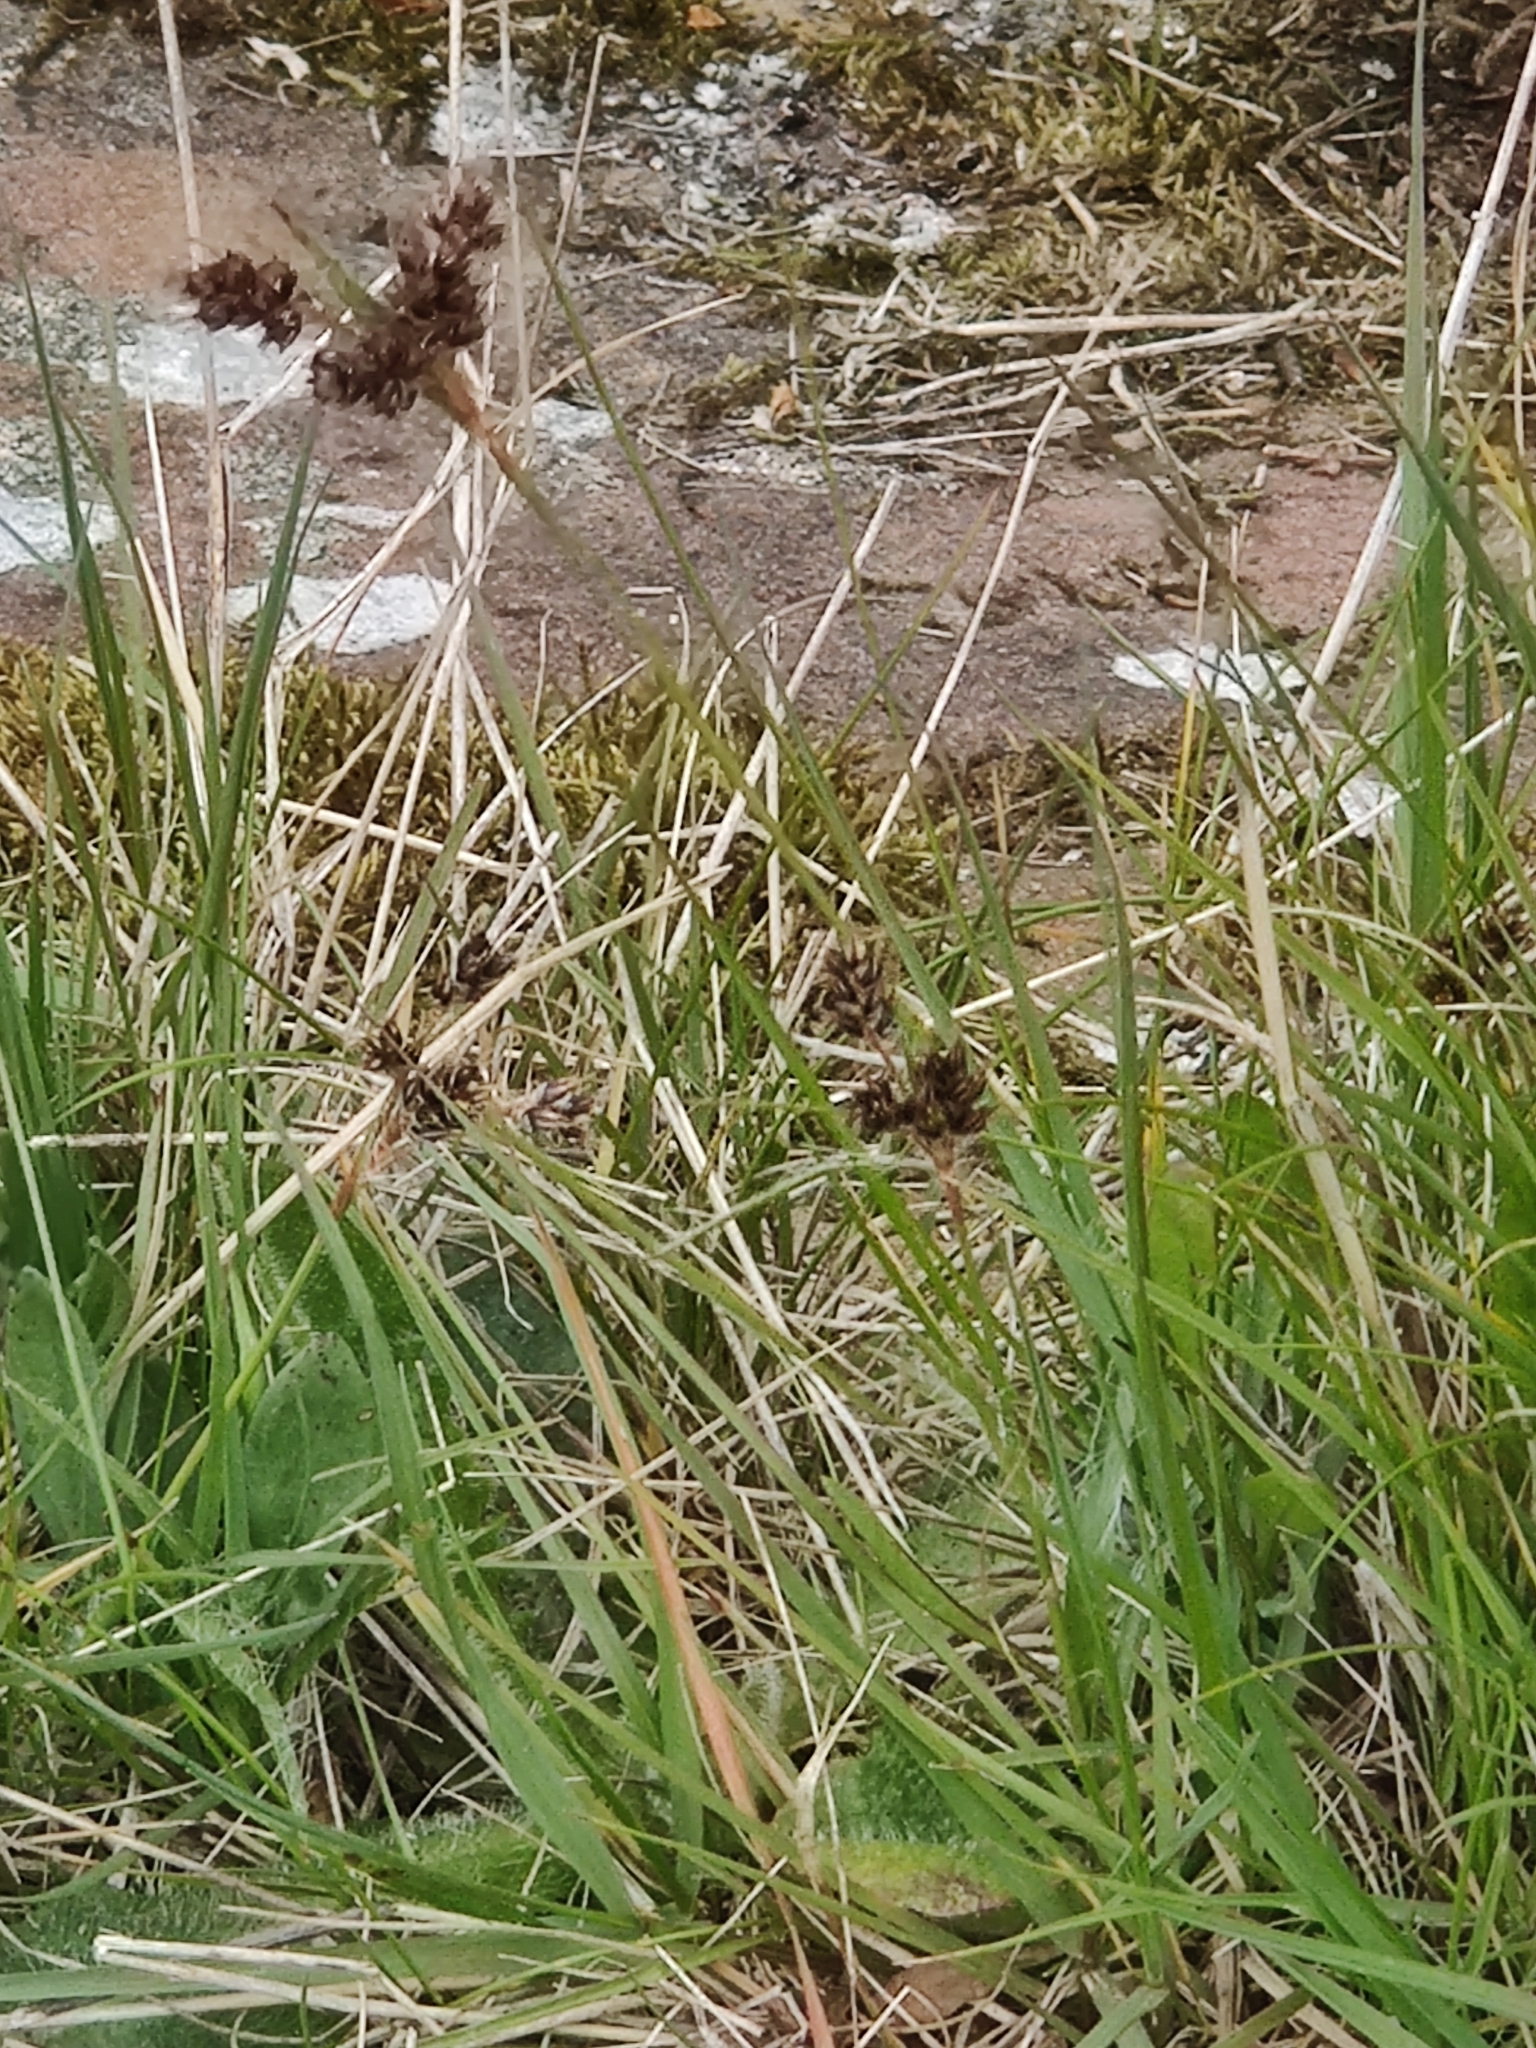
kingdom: Plantae
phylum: Tracheophyta
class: Liliopsida
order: Poales
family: Juncaceae
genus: Luzula
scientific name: Luzula campestris
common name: Field wood-rush
